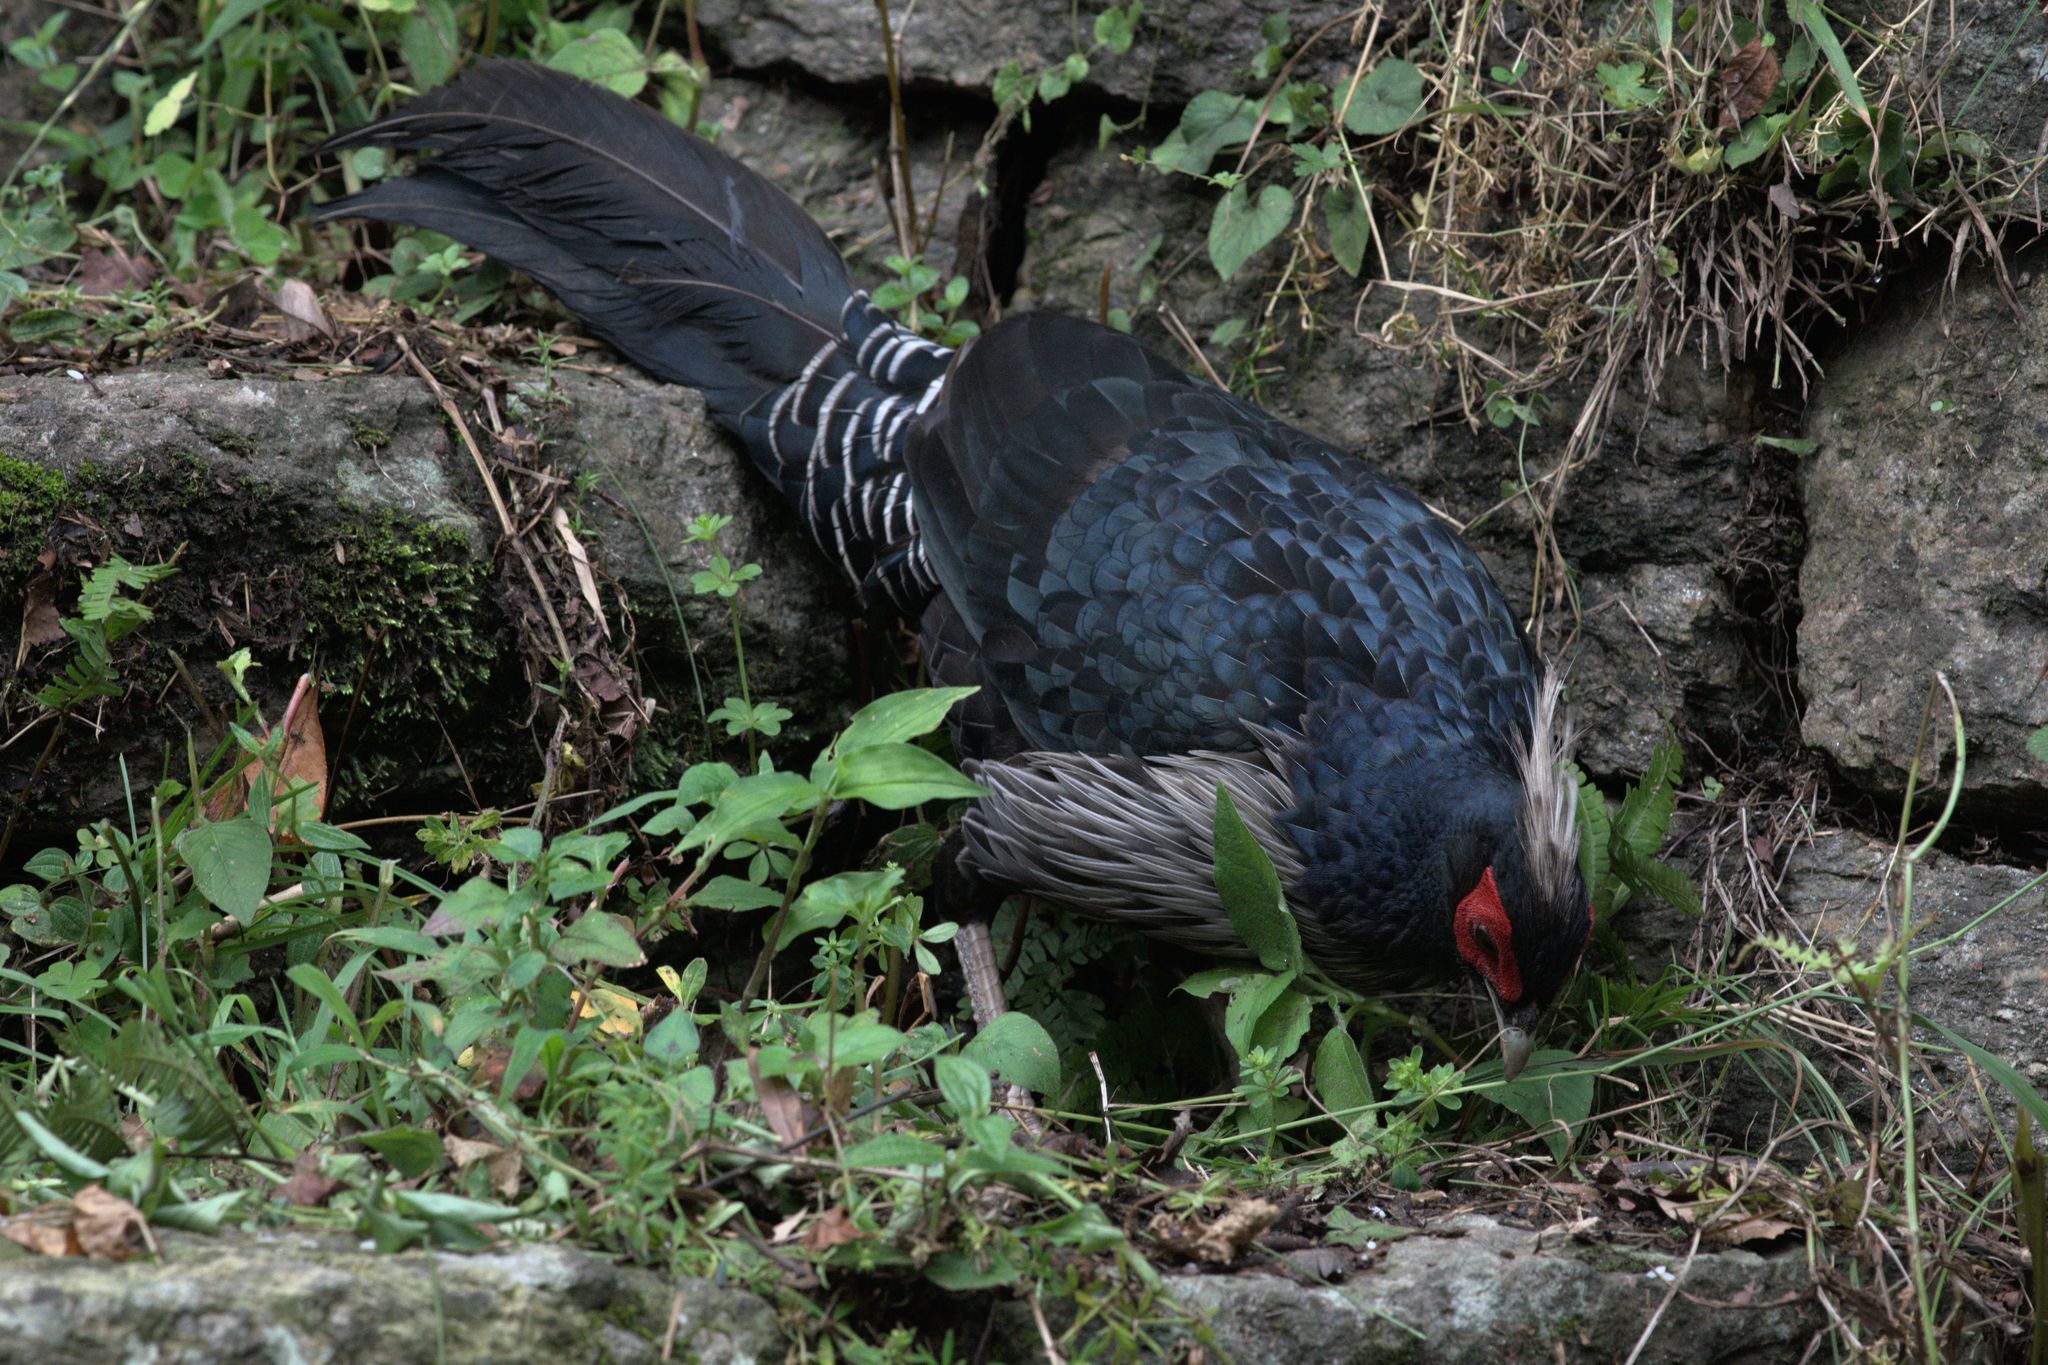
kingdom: Animalia
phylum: Chordata
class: Aves
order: Galliformes
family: Phasianidae
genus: Lophura
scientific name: Lophura leucomelanos
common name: Kalij pheasant
